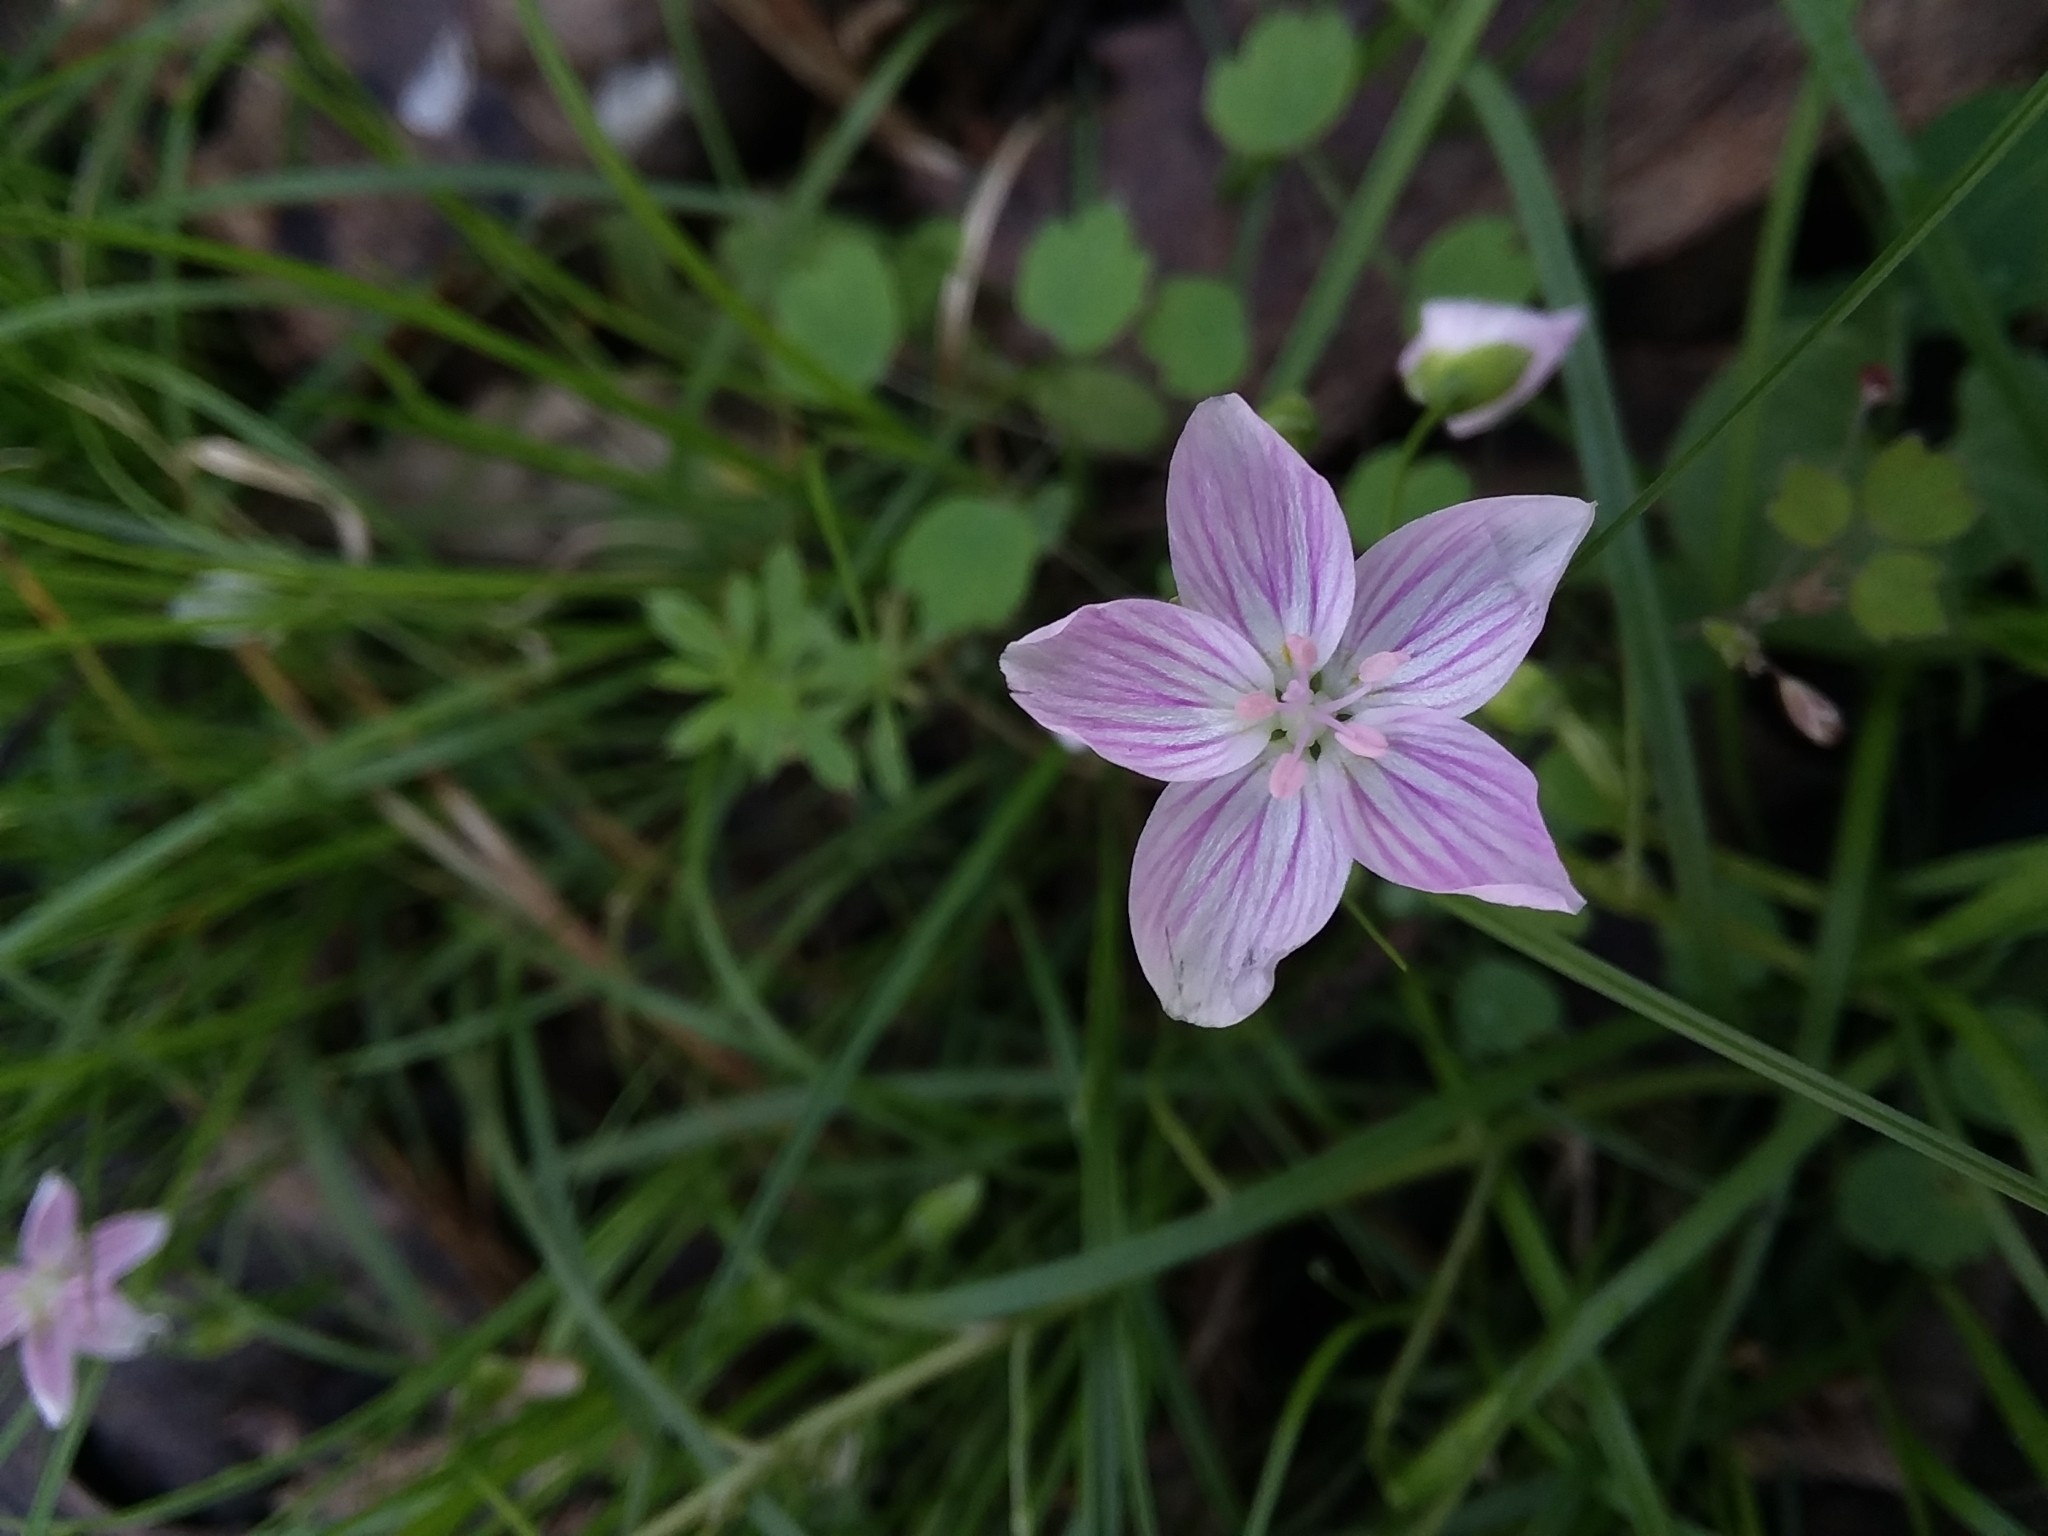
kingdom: Plantae
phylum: Tracheophyta
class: Magnoliopsida
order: Caryophyllales
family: Montiaceae
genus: Claytonia
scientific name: Claytonia virginica
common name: Virginia springbeauty
